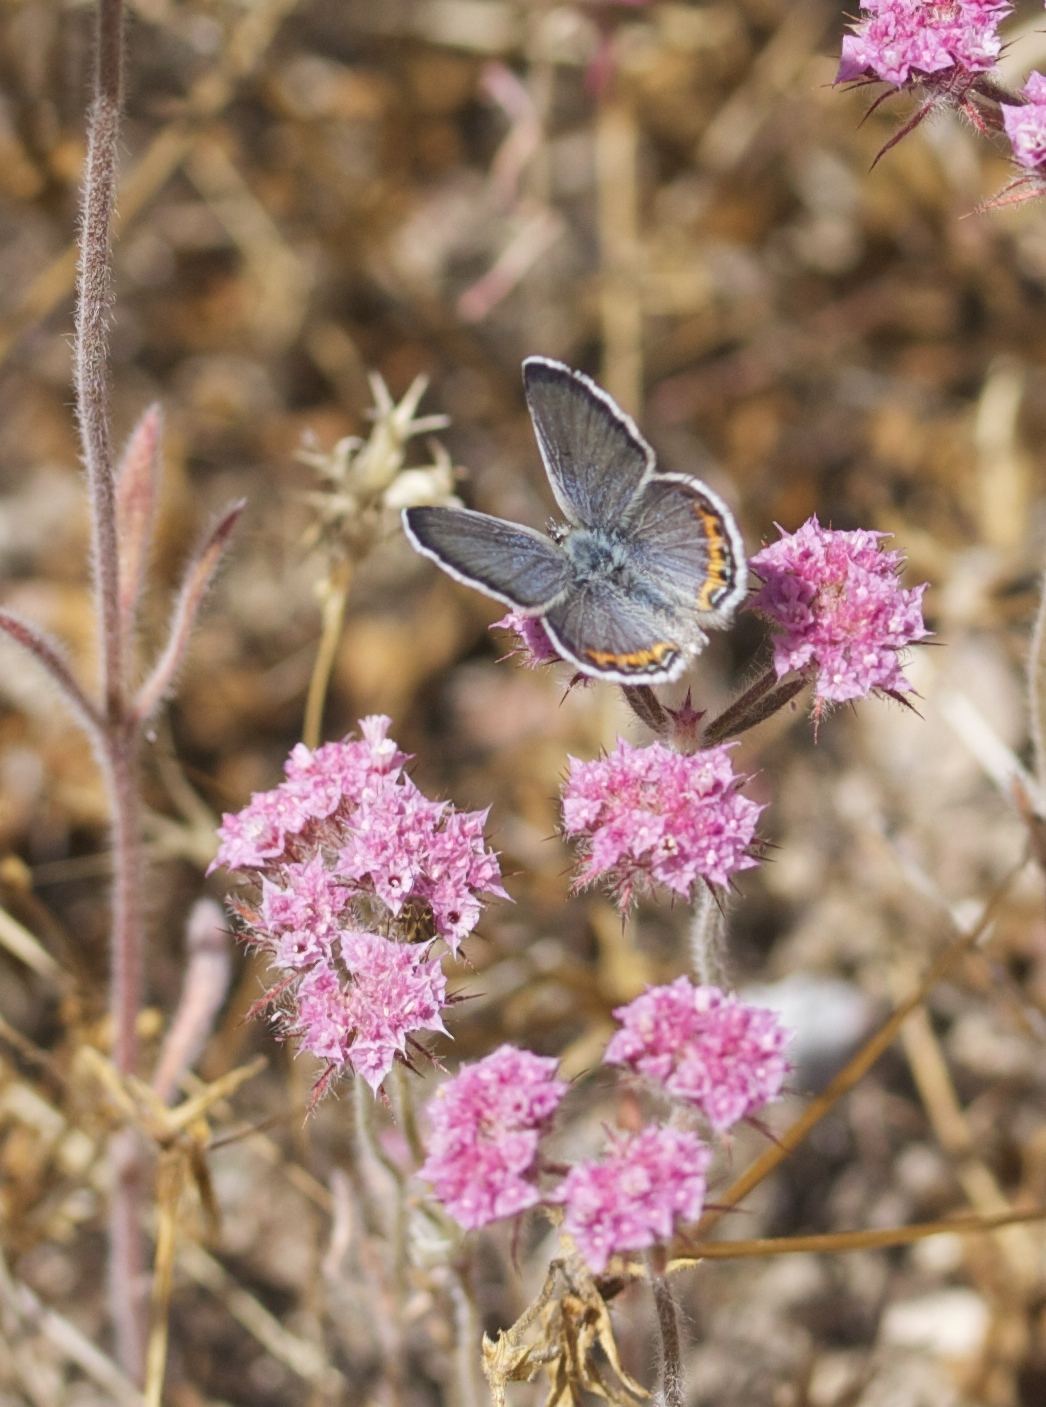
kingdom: Animalia
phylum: Arthropoda
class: Insecta
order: Lepidoptera
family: Lycaenidae
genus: Icaricia
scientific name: Icaricia lupini
